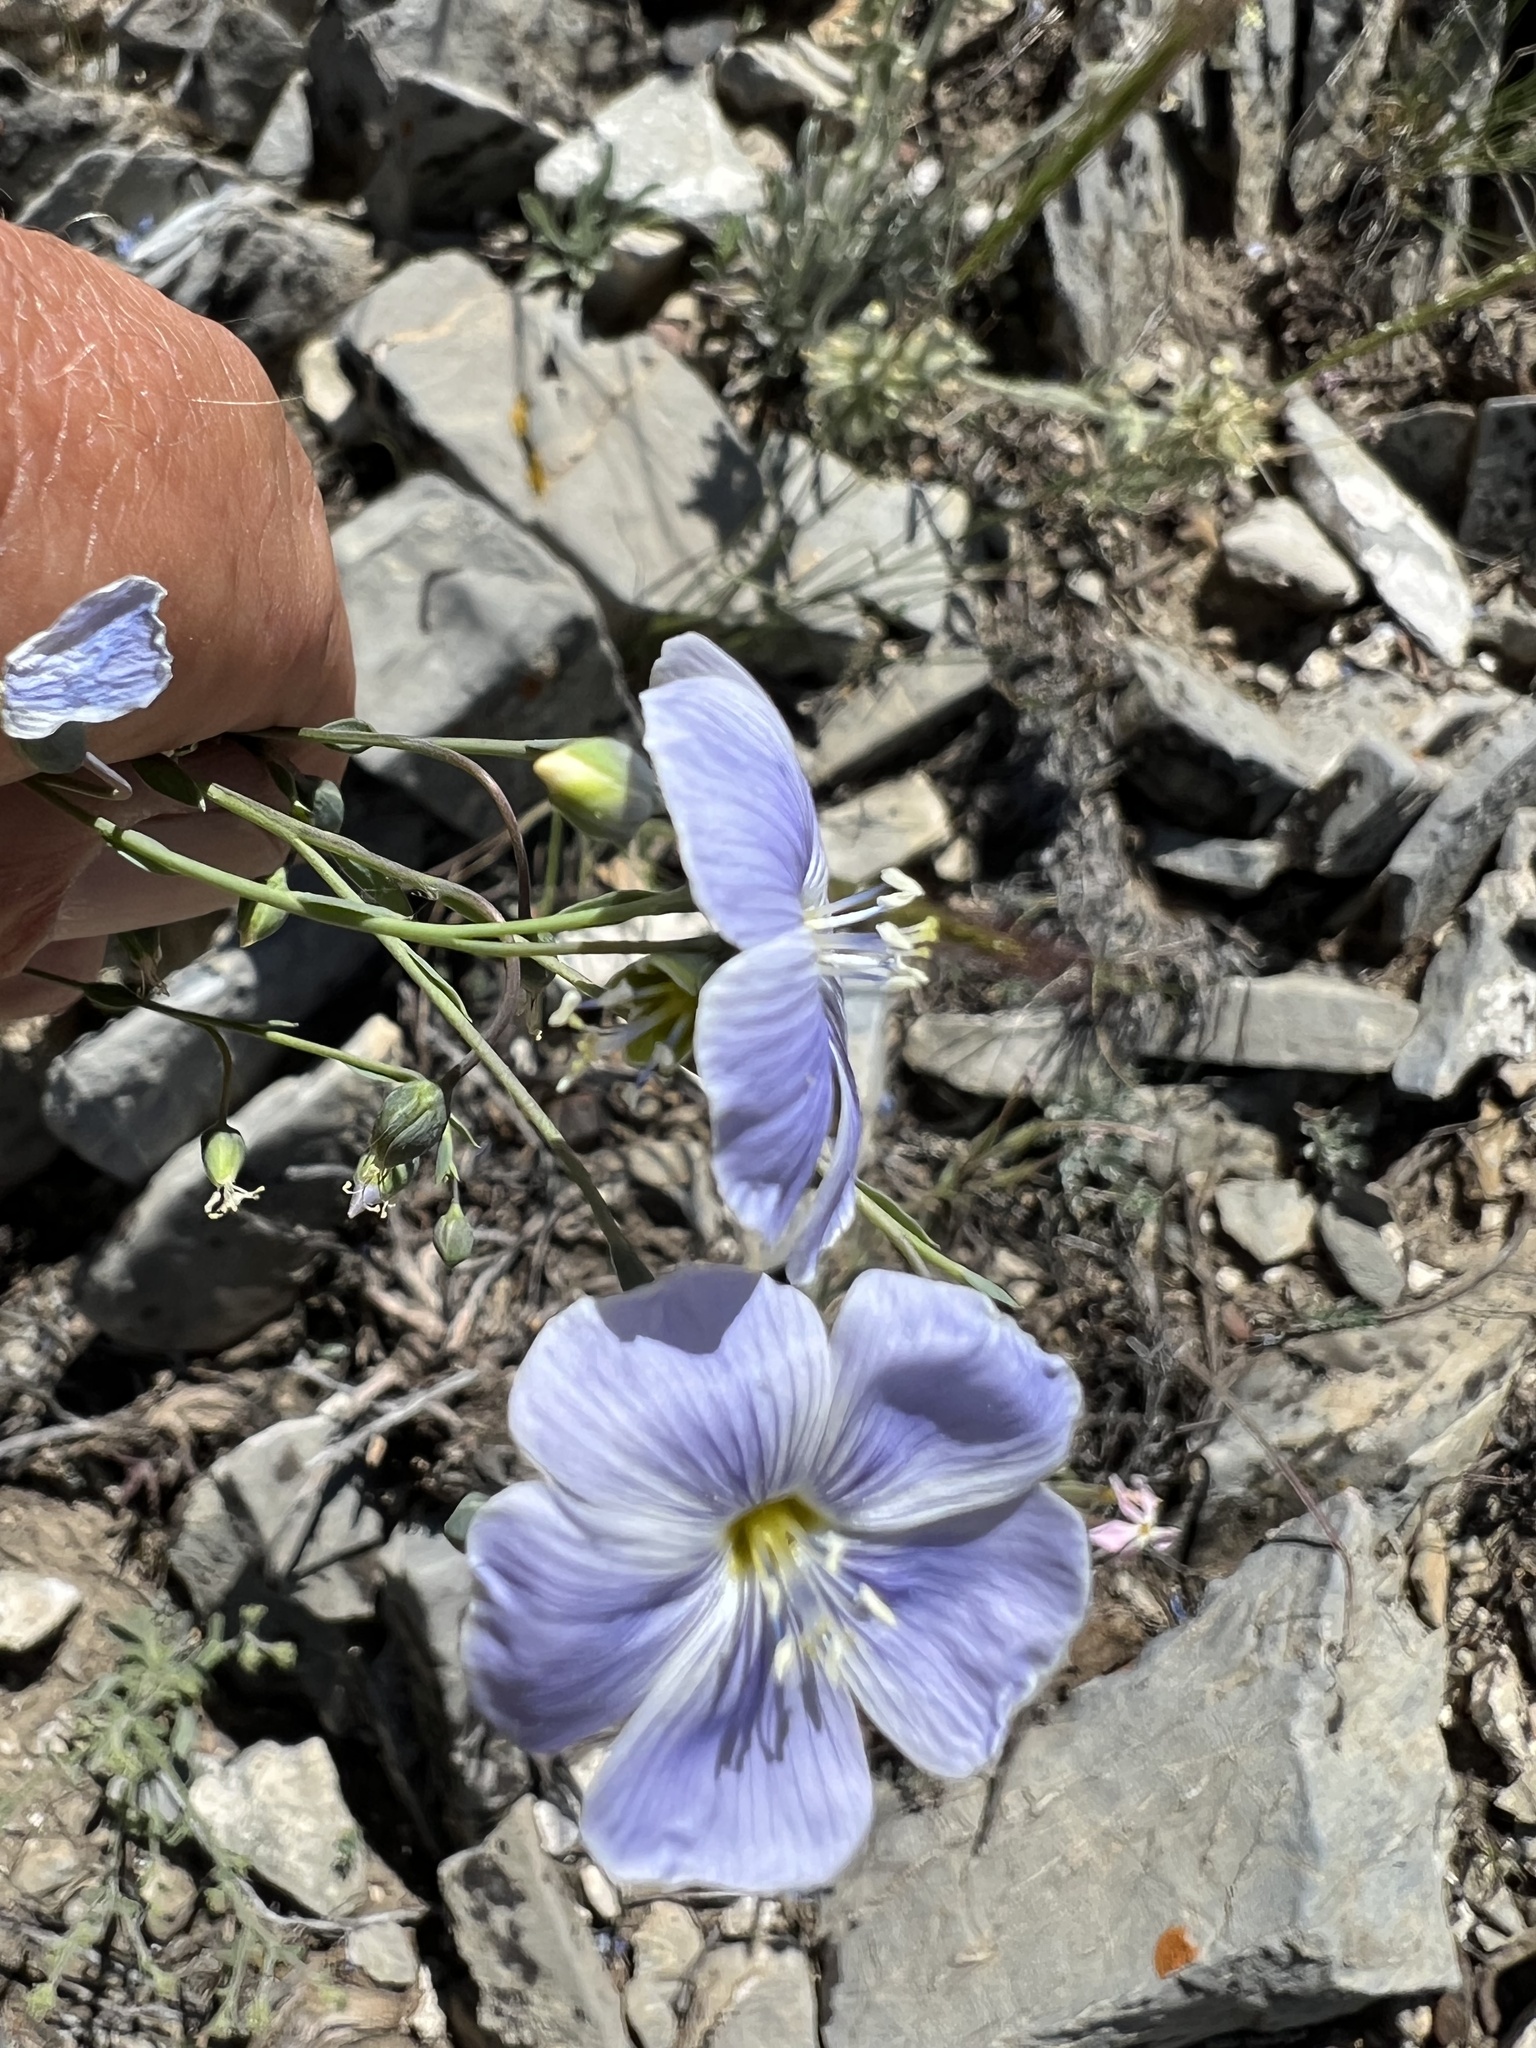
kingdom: Plantae
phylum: Tracheophyta
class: Magnoliopsida
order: Malpighiales
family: Linaceae
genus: Linum
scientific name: Linum lewisii
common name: Prairie flax
